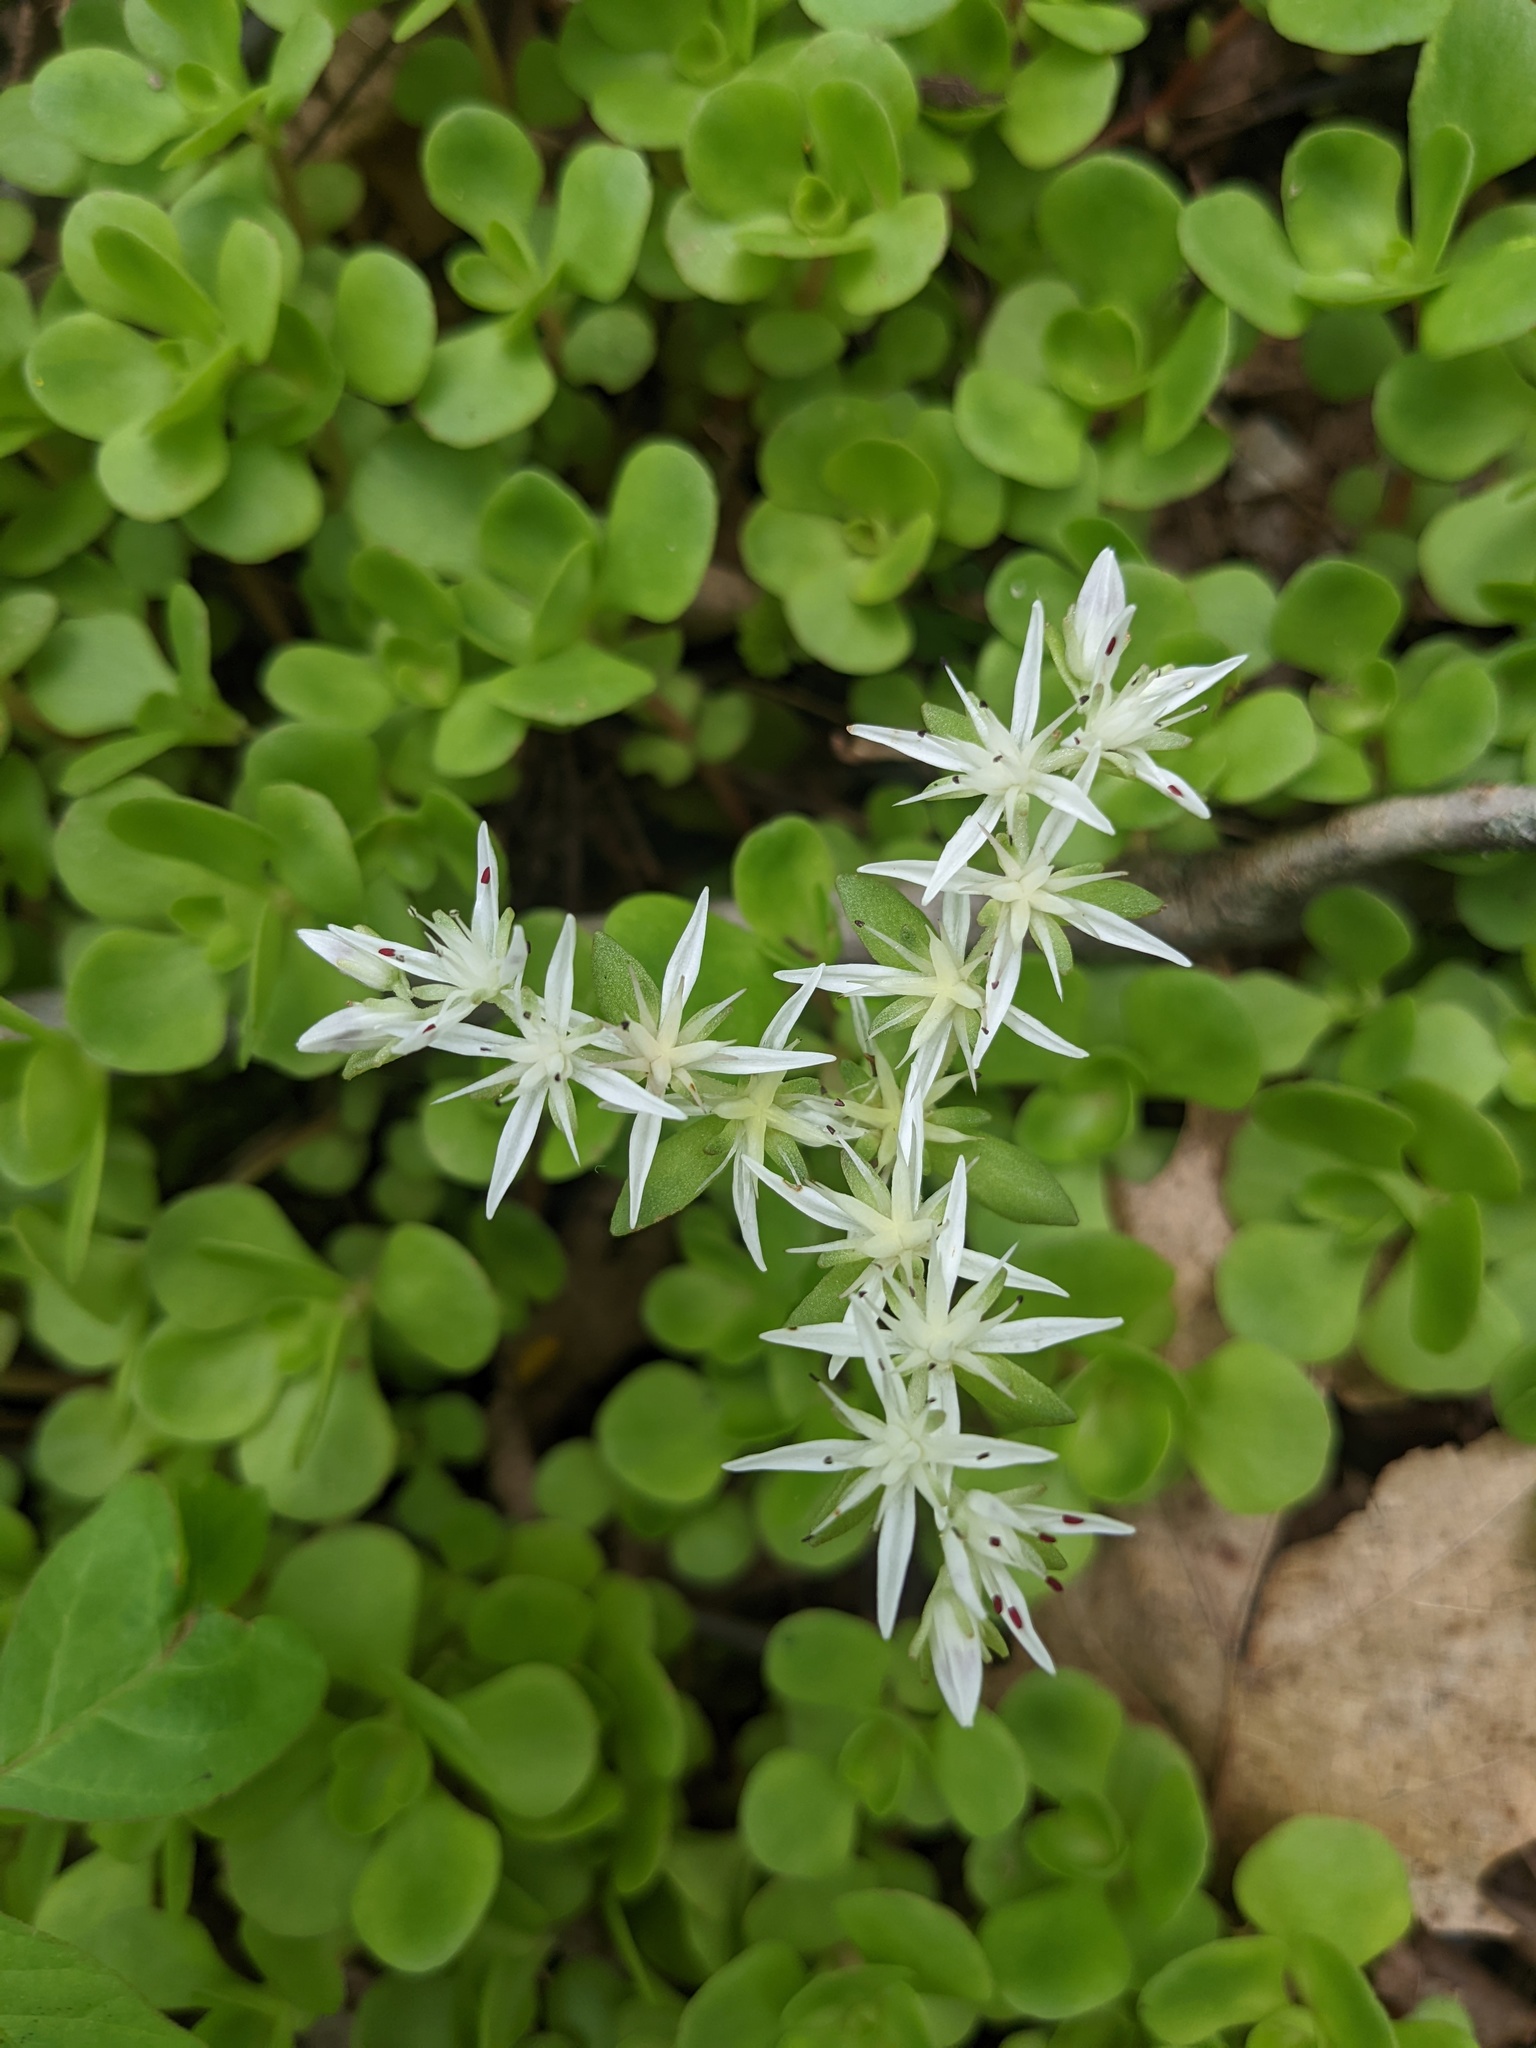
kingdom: Plantae
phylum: Tracheophyta
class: Magnoliopsida
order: Saxifragales
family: Crassulaceae
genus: Sedum
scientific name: Sedum ternatum
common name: Wild stonecrop
